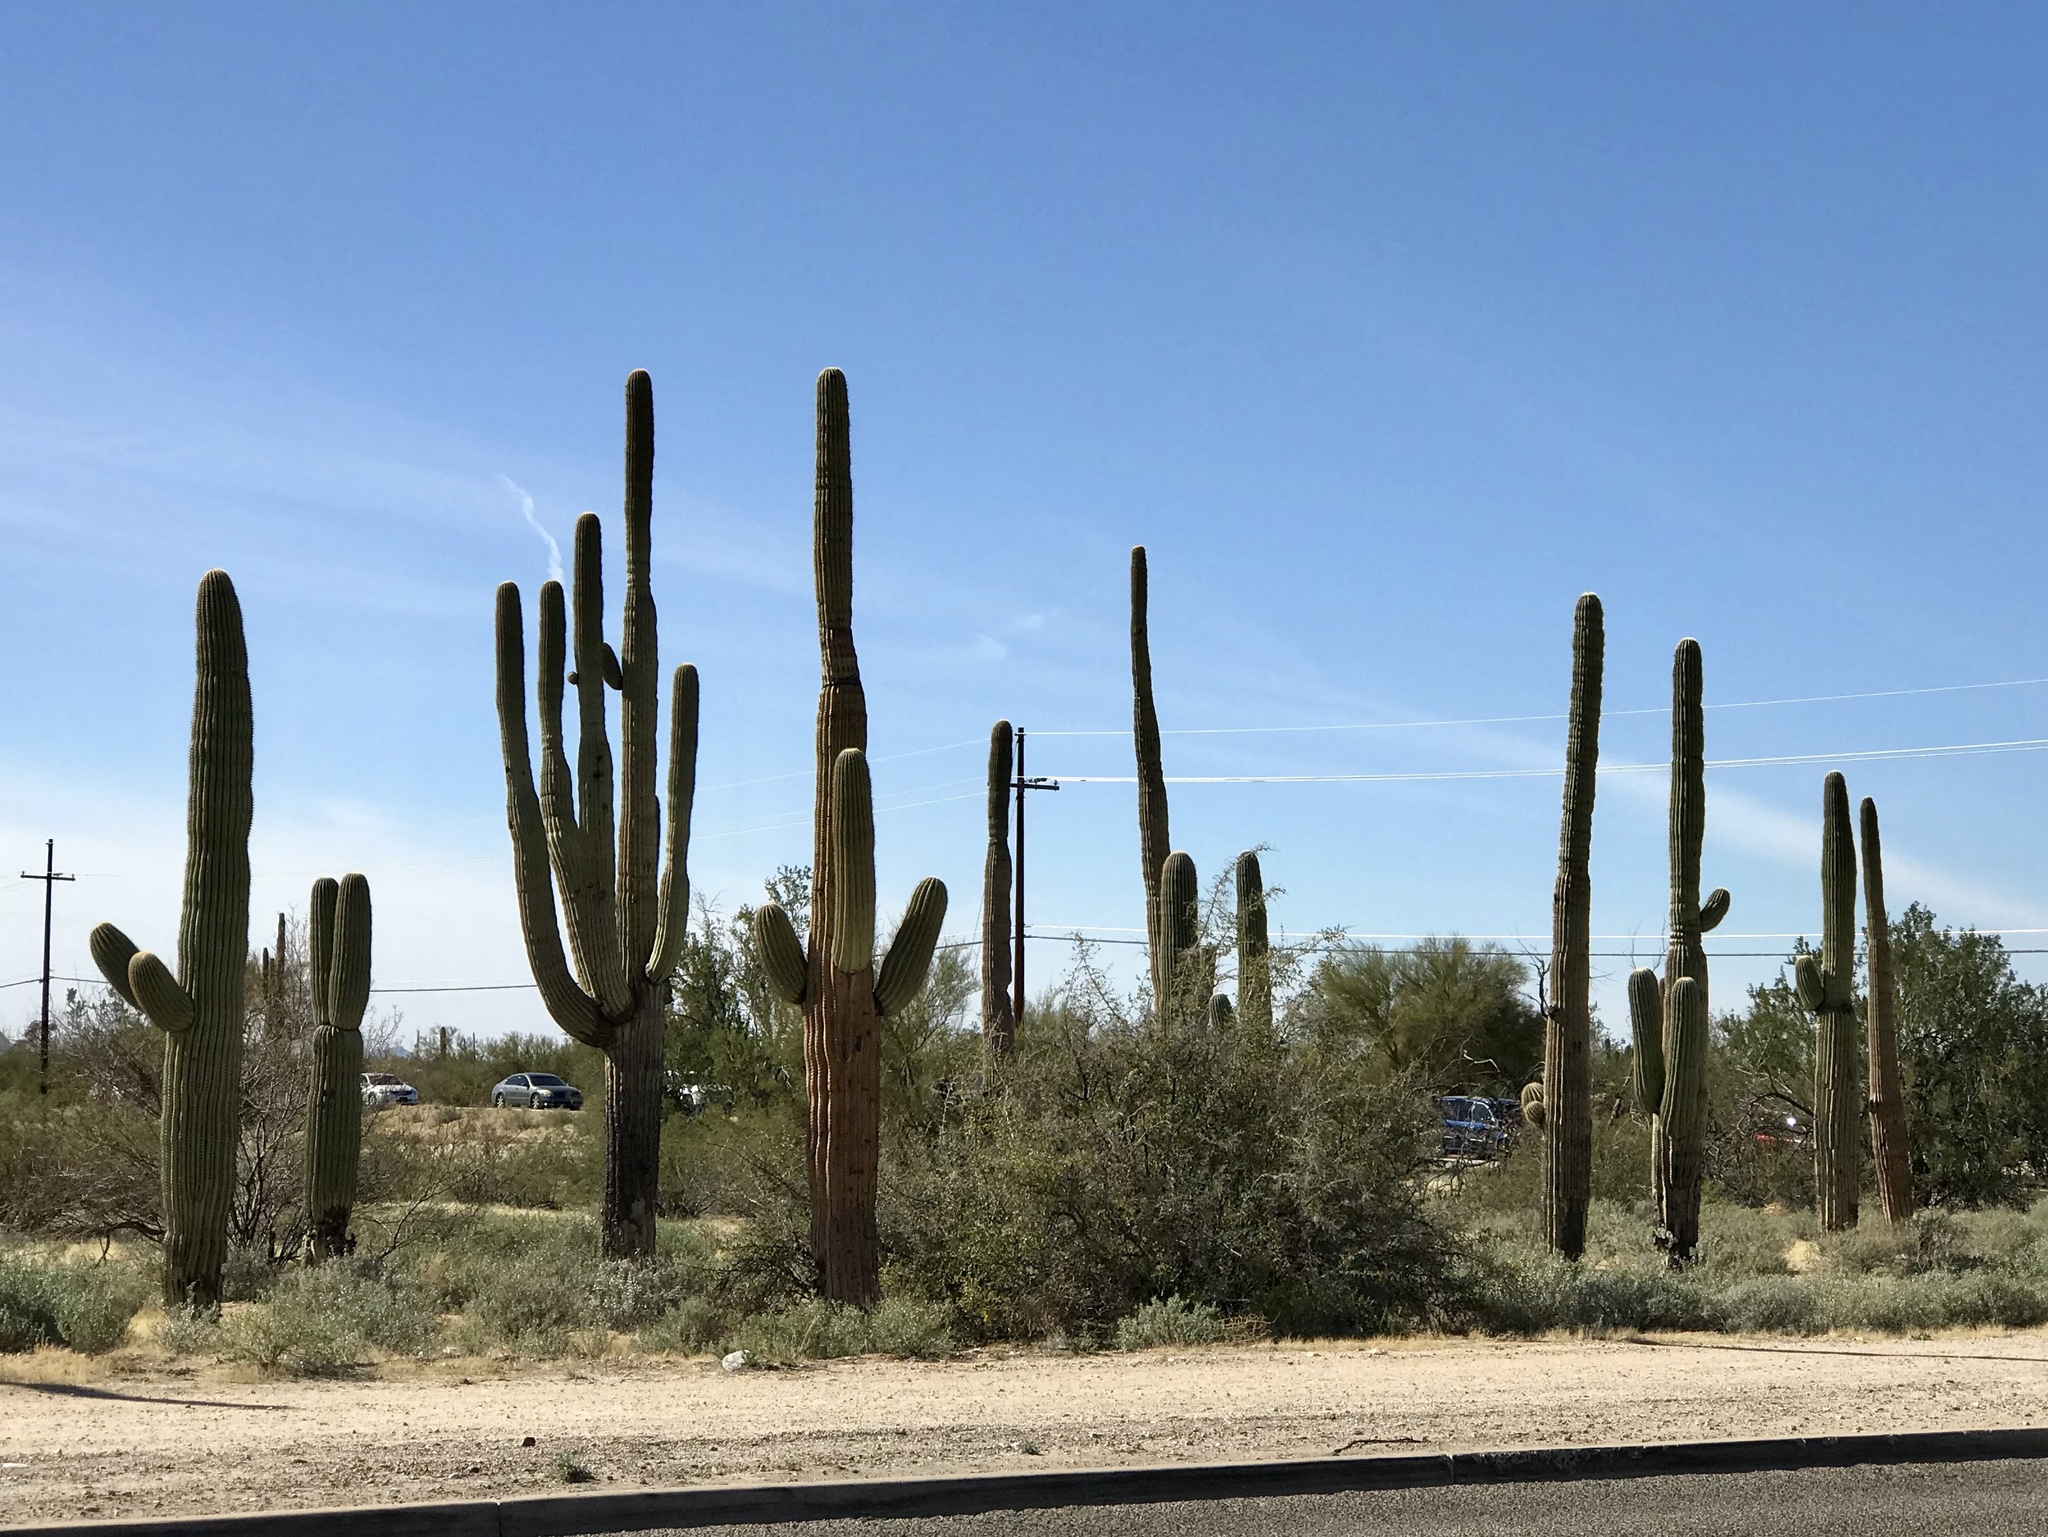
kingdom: Plantae
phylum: Tracheophyta
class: Magnoliopsida
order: Caryophyllales
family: Cactaceae
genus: Carnegiea
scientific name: Carnegiea gigantea
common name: Saguaro
